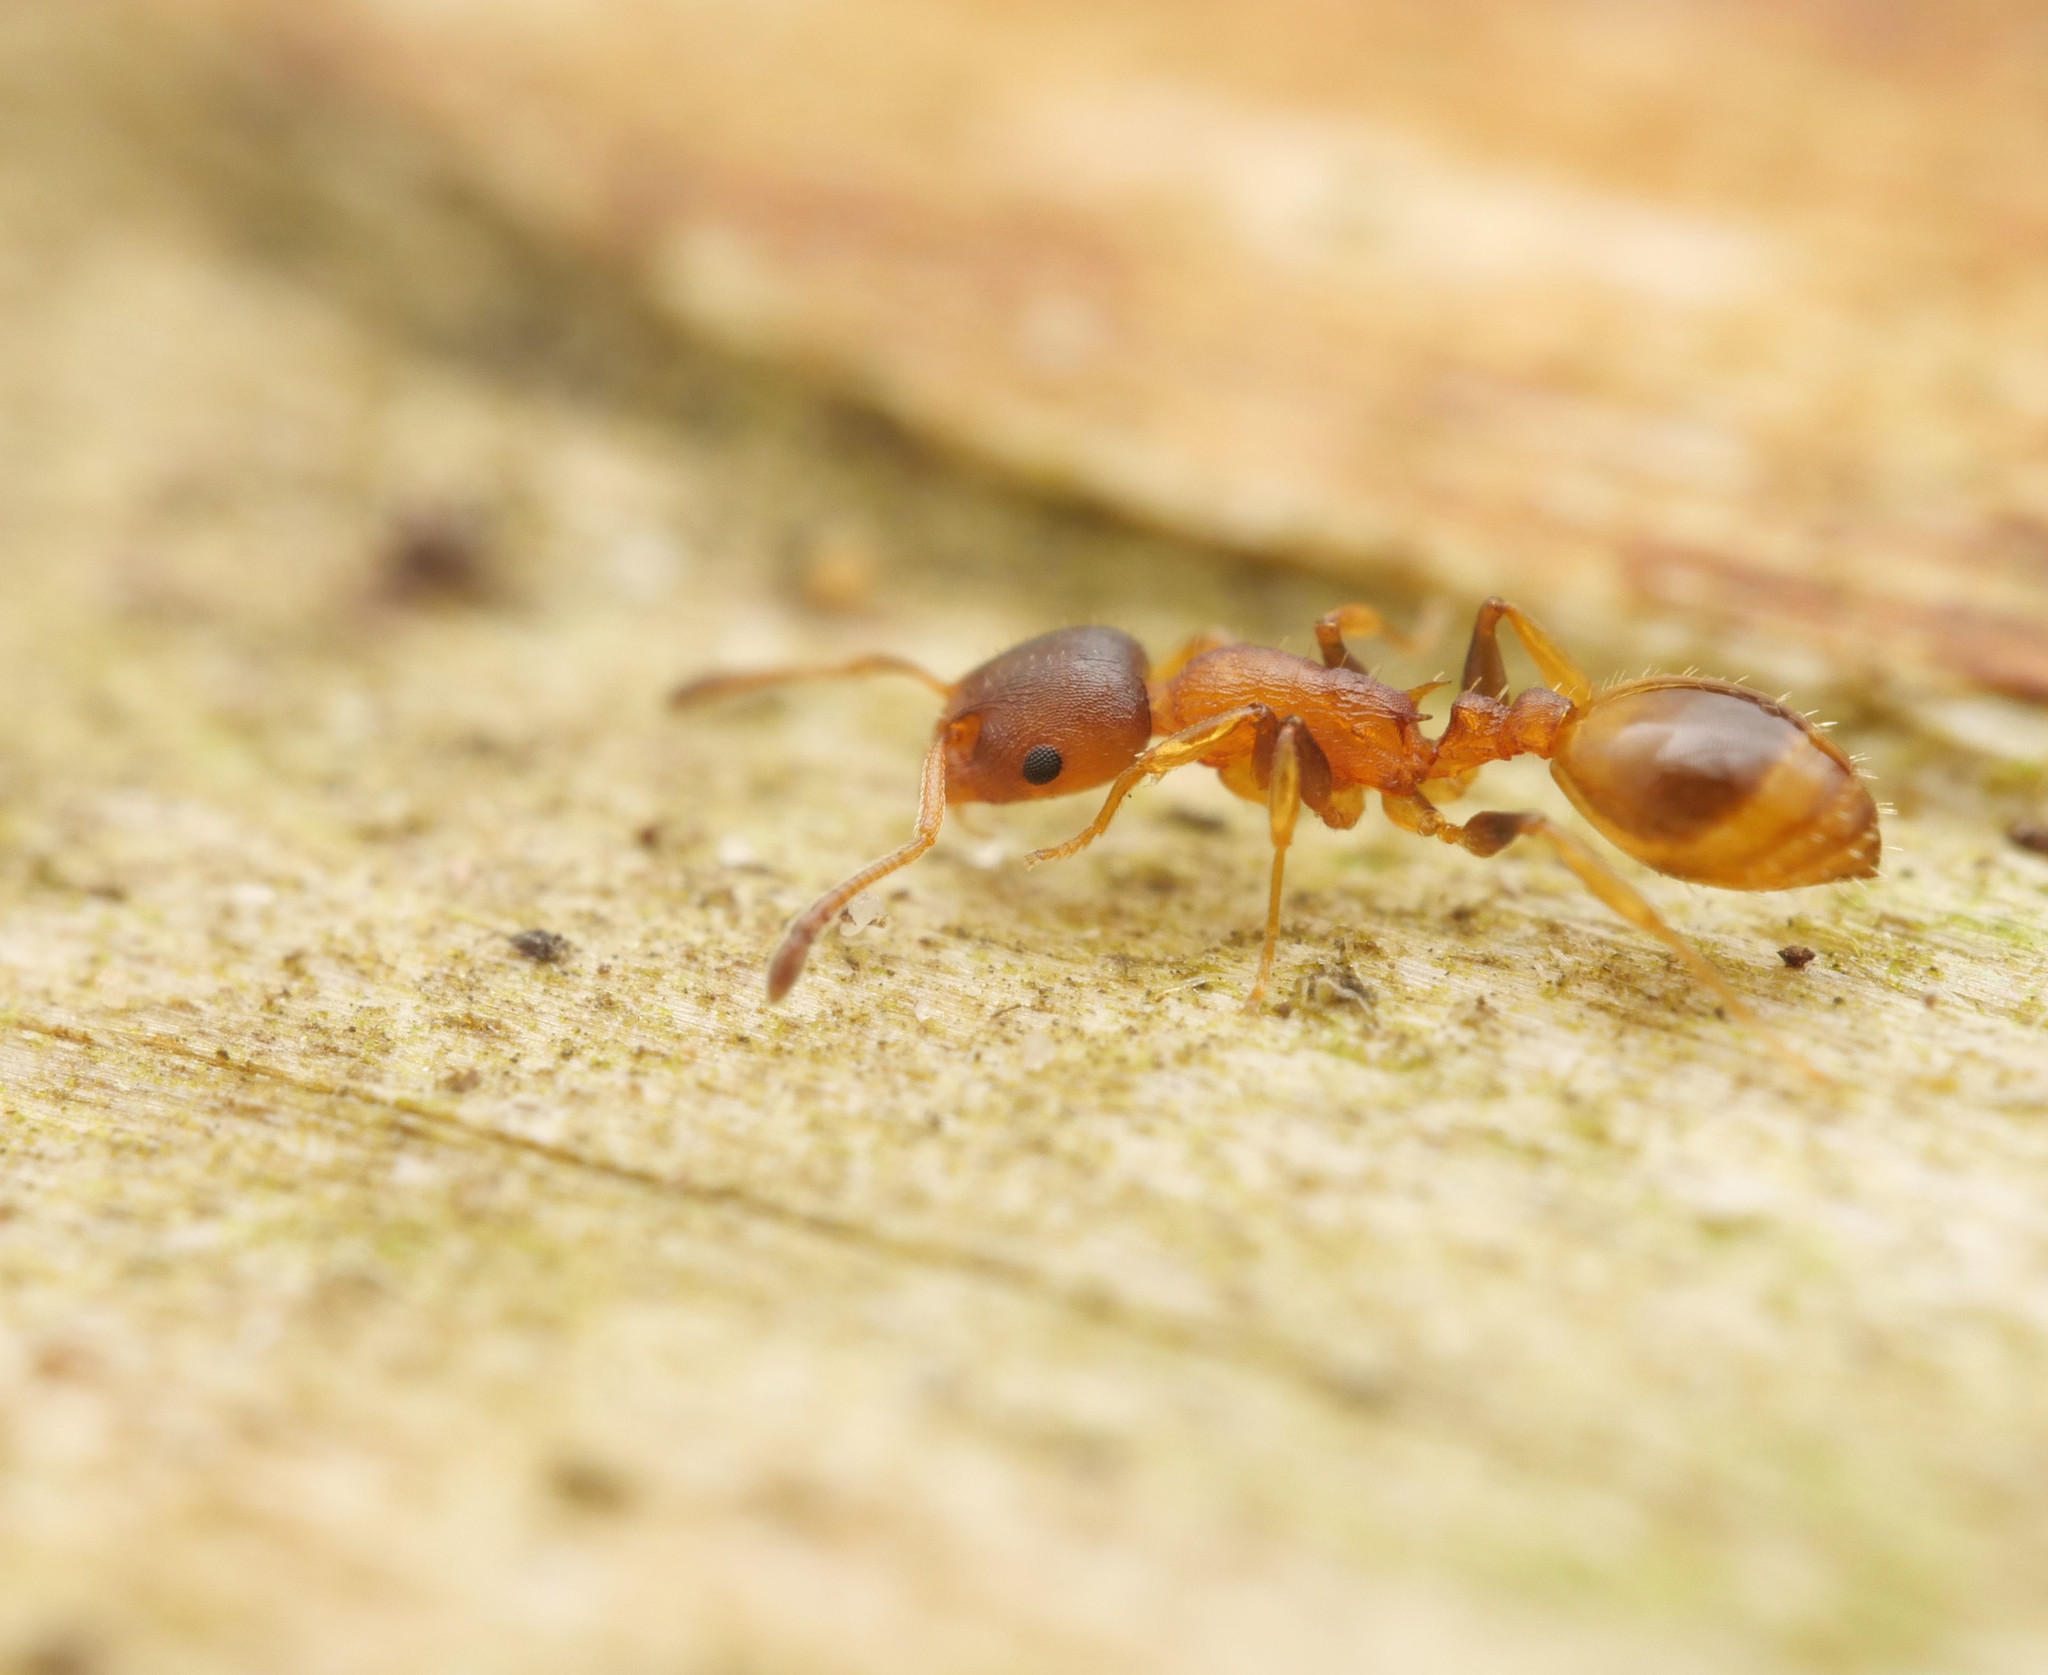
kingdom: Animalia
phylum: Arthropoda
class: Insecta
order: Hymenoptera
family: Formicidae
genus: Leptothorax
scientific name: Leptothorax affinis
